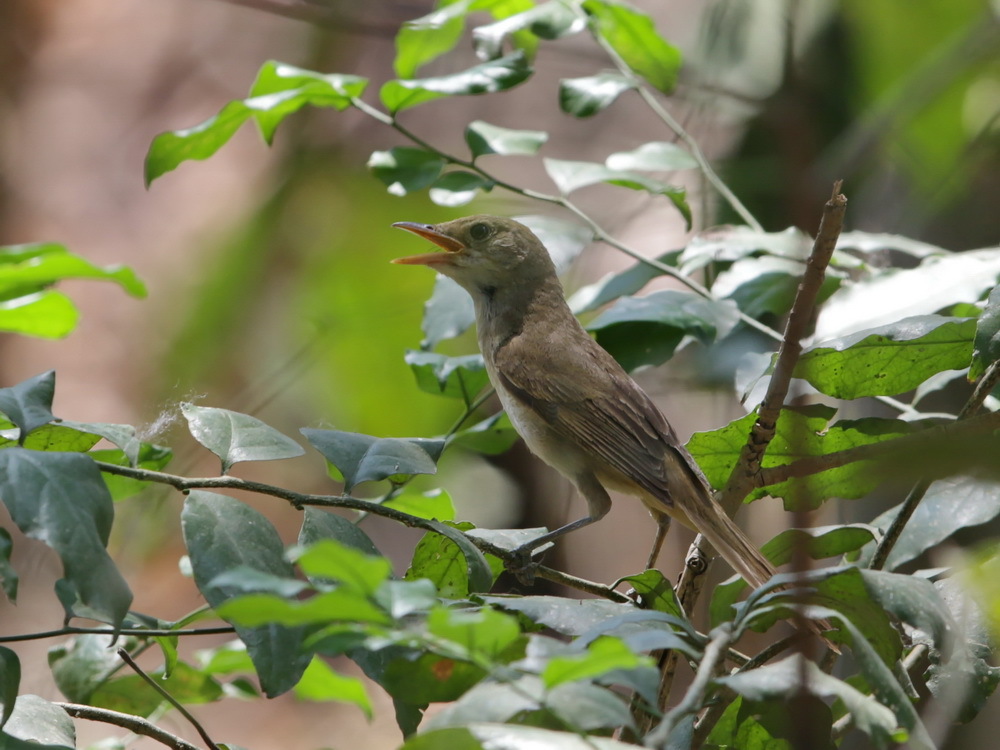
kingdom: Animalia
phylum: Chordata
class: Aves
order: Passeriformes
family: Acrocephalidae
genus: Iduna
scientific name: Iduna aedon
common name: Thick-billed warbler
